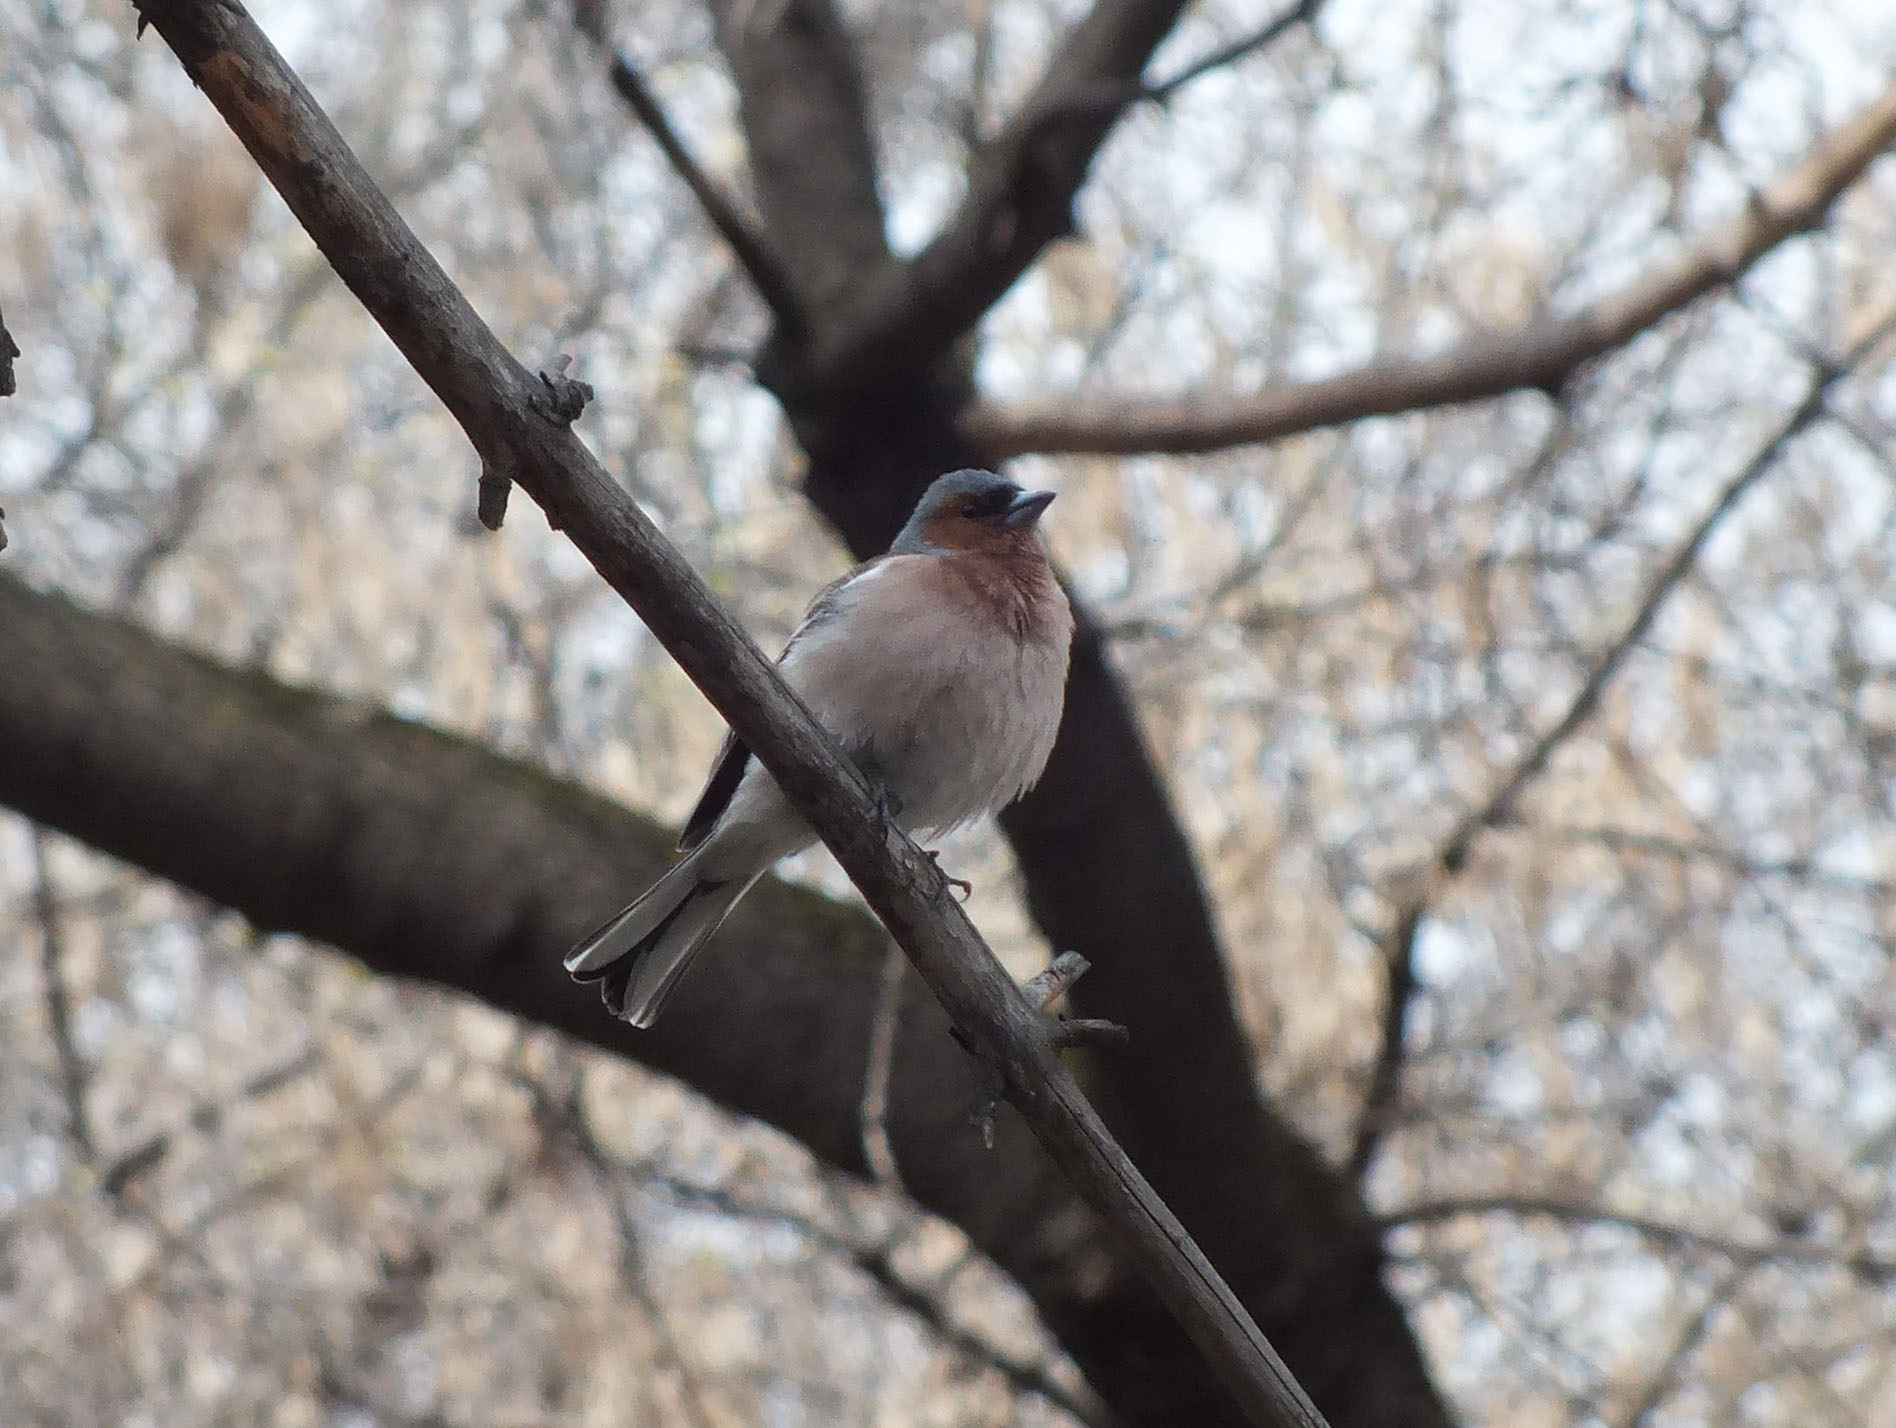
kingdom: Animalia
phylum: Chordata
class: Aves
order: Passeriformes
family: Fringillidae
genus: Fringilla
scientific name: Fringilla coelebs
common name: Common chaffinch
